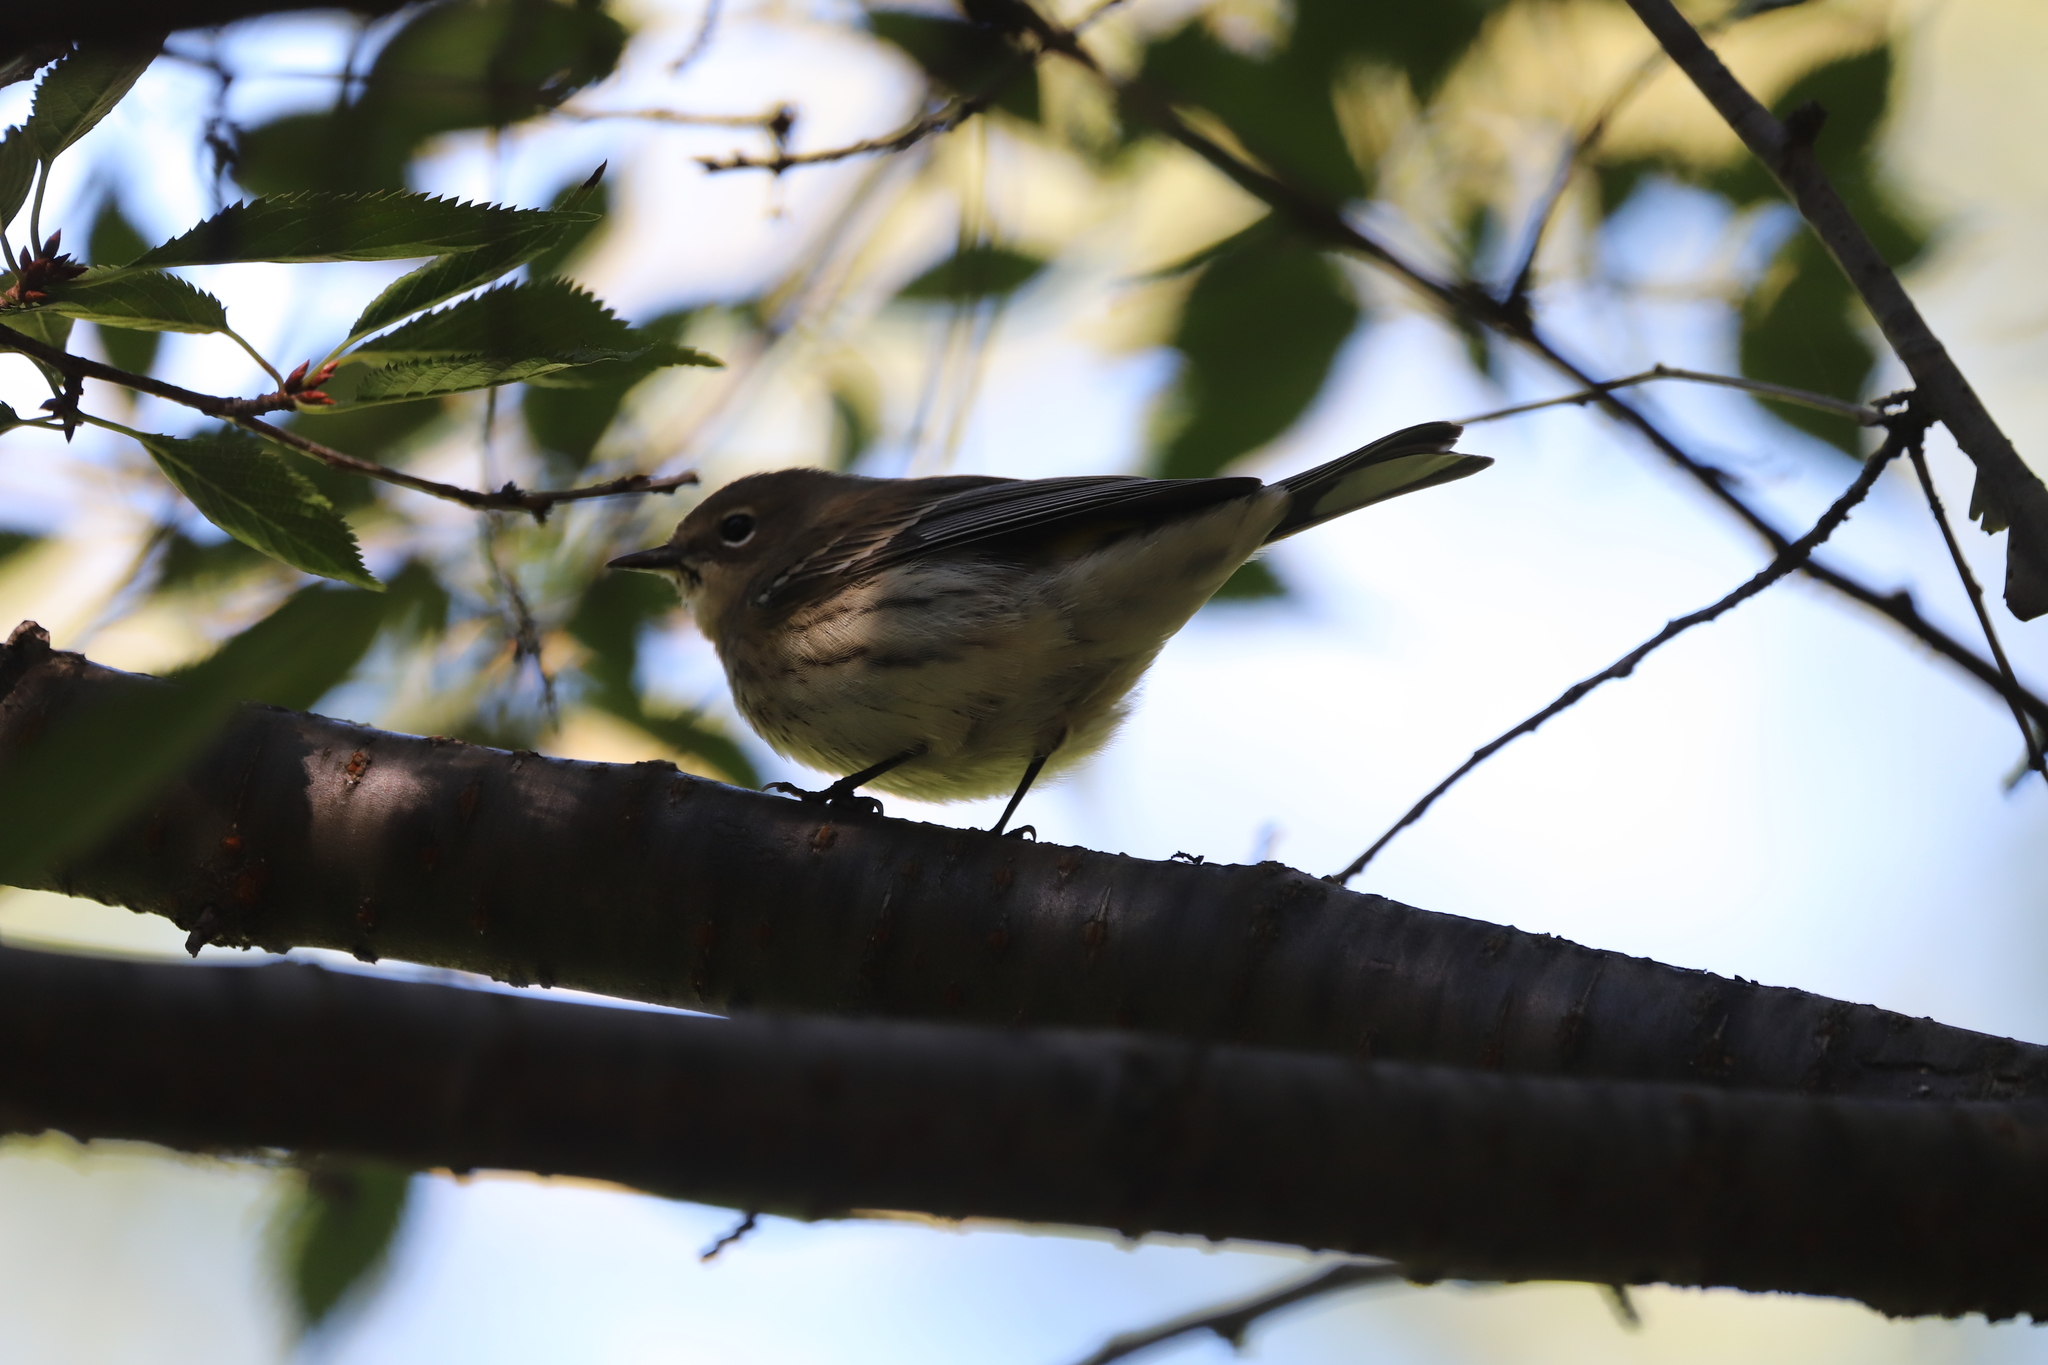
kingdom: Animalia
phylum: Chordata
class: Aves
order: Passeriformes
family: Parulidae
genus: Setophaga
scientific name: Setophaga coronata
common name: Myrtle warbler
